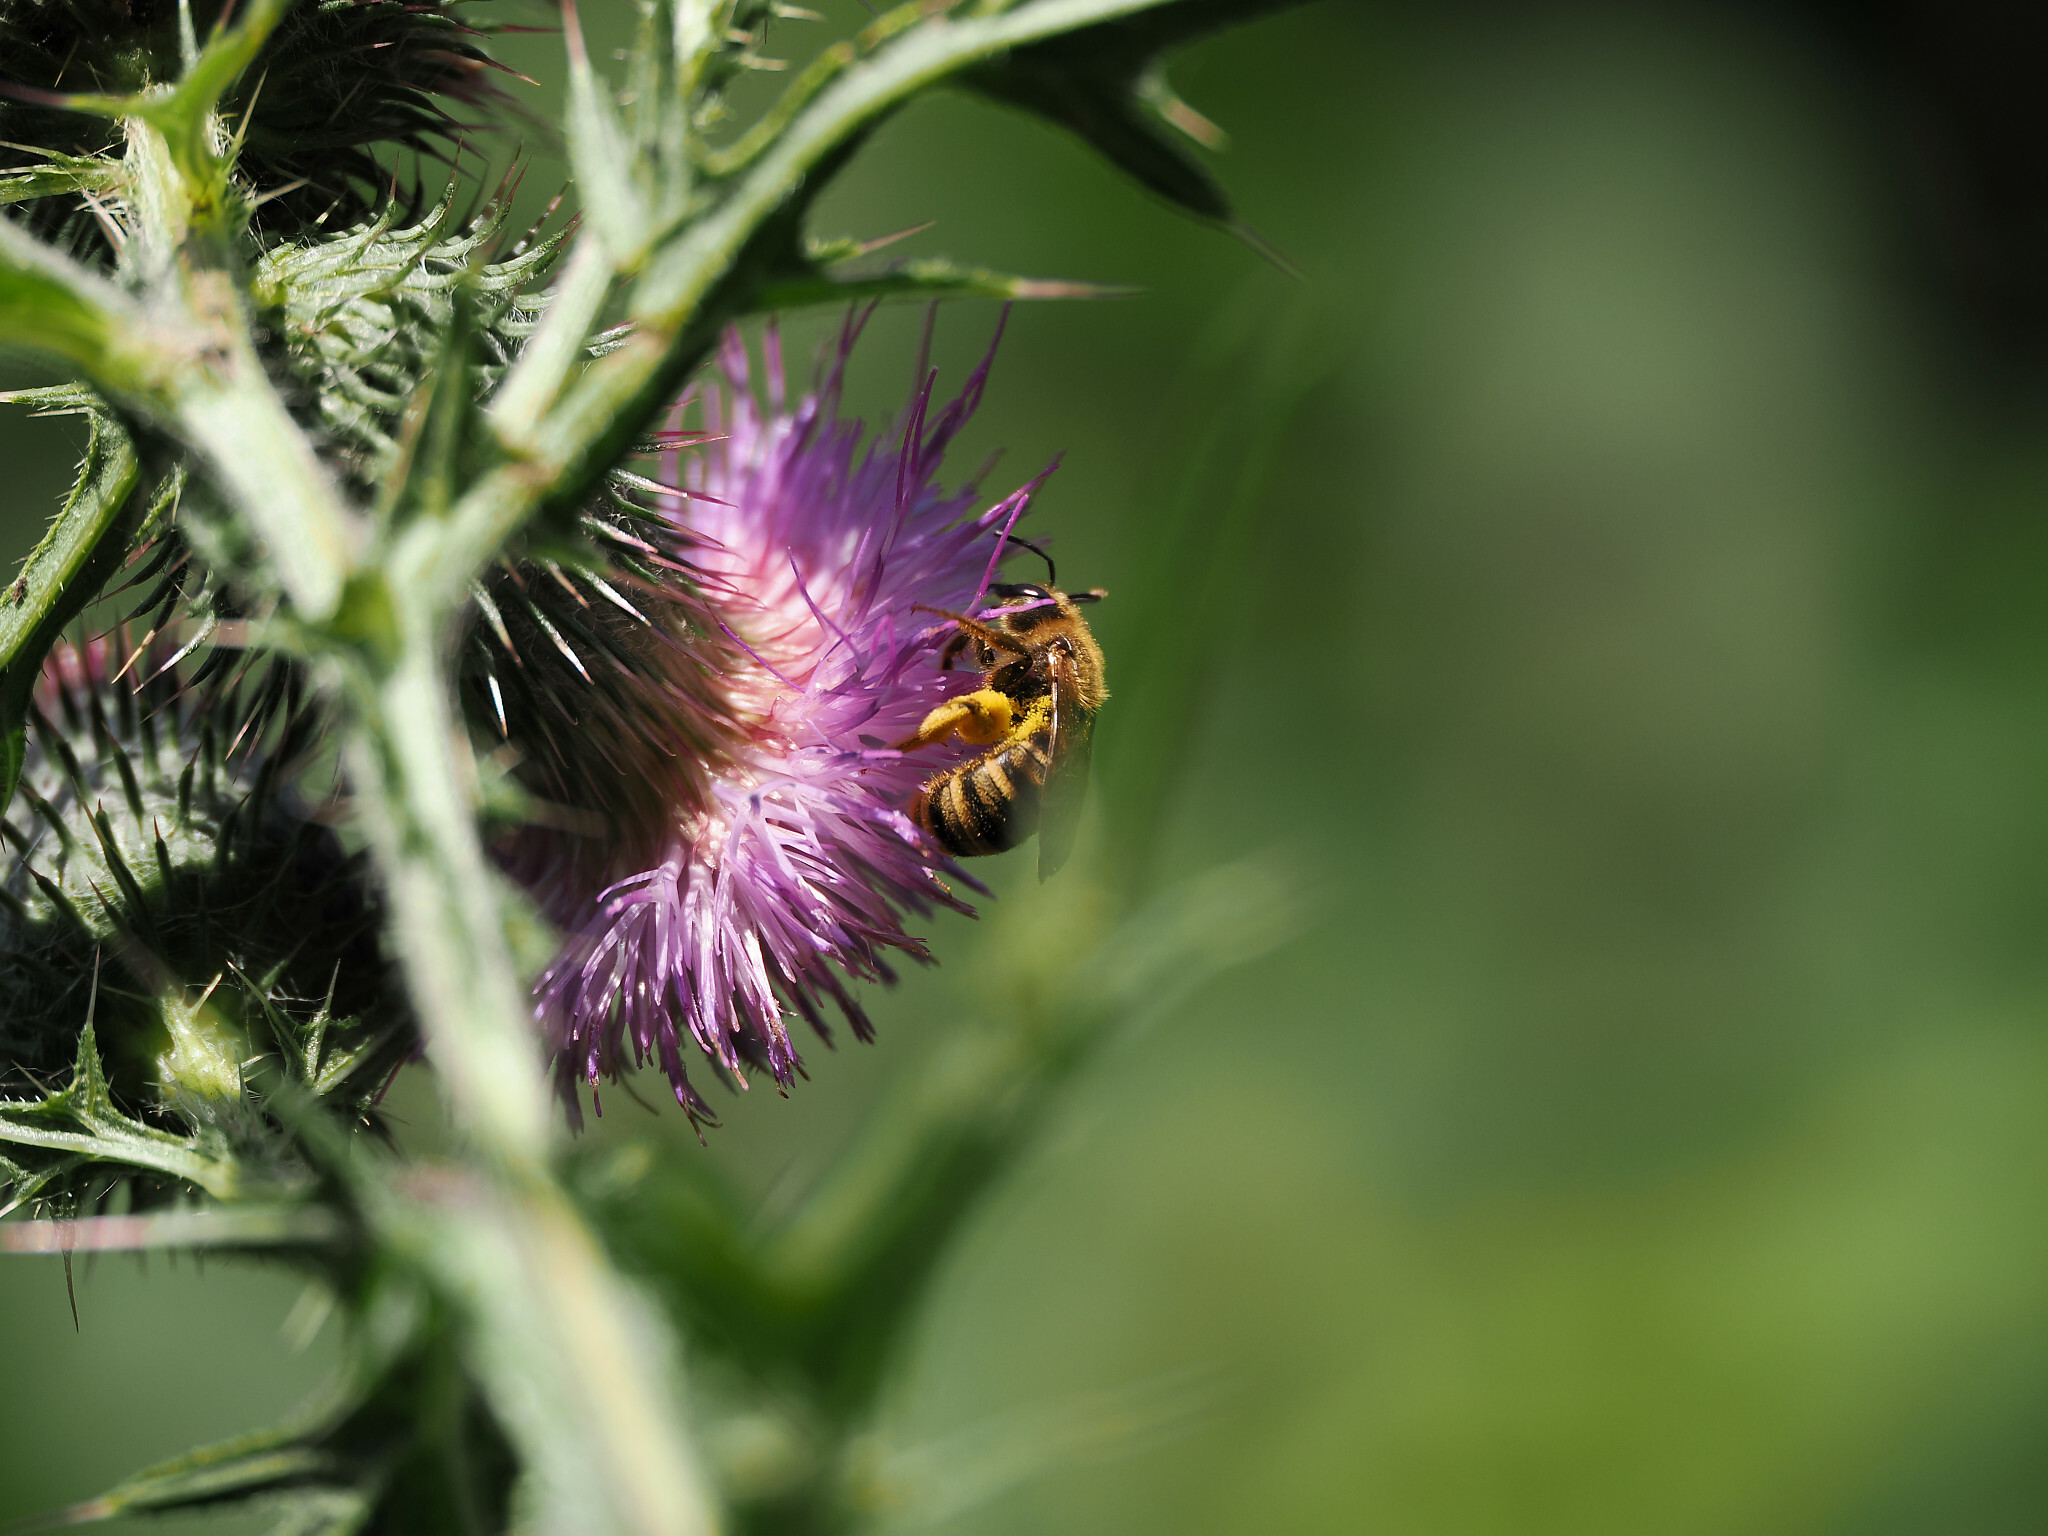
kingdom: Animalia
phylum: Arthropoda
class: Insecta
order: Hymenoptera
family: Halictidae
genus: Halictus
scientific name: Halictus scabiosae
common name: Great banded furrow bee
